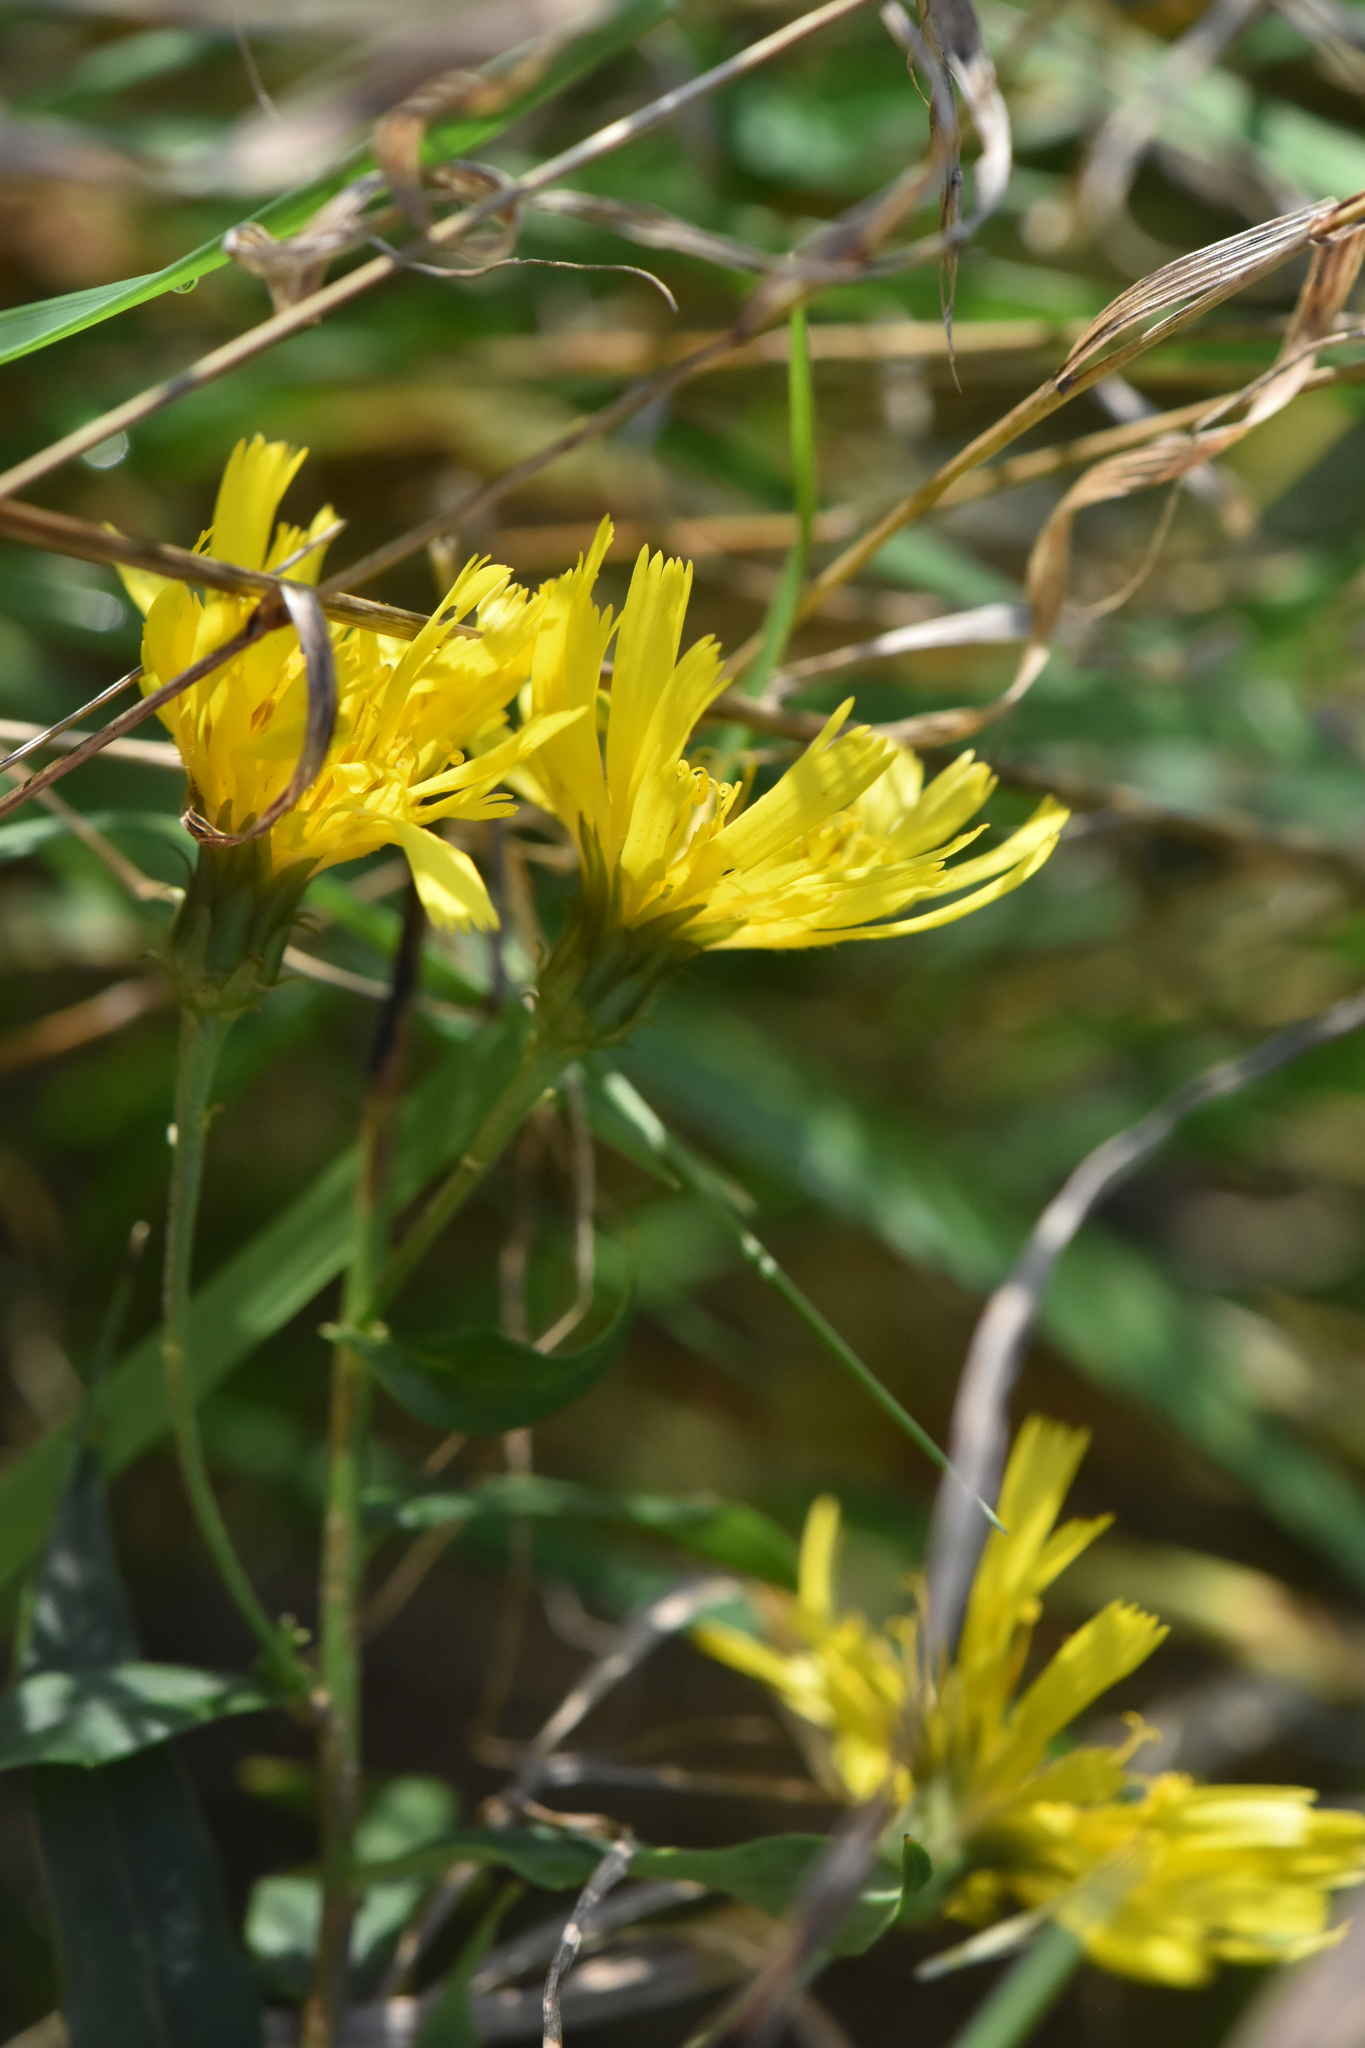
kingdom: Plantae
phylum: Tracheophyta
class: Magnoliopsida
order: Asterales
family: Asteraceae
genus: Hieracium
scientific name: Hieracium umbellatum
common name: Northern hawkweed
